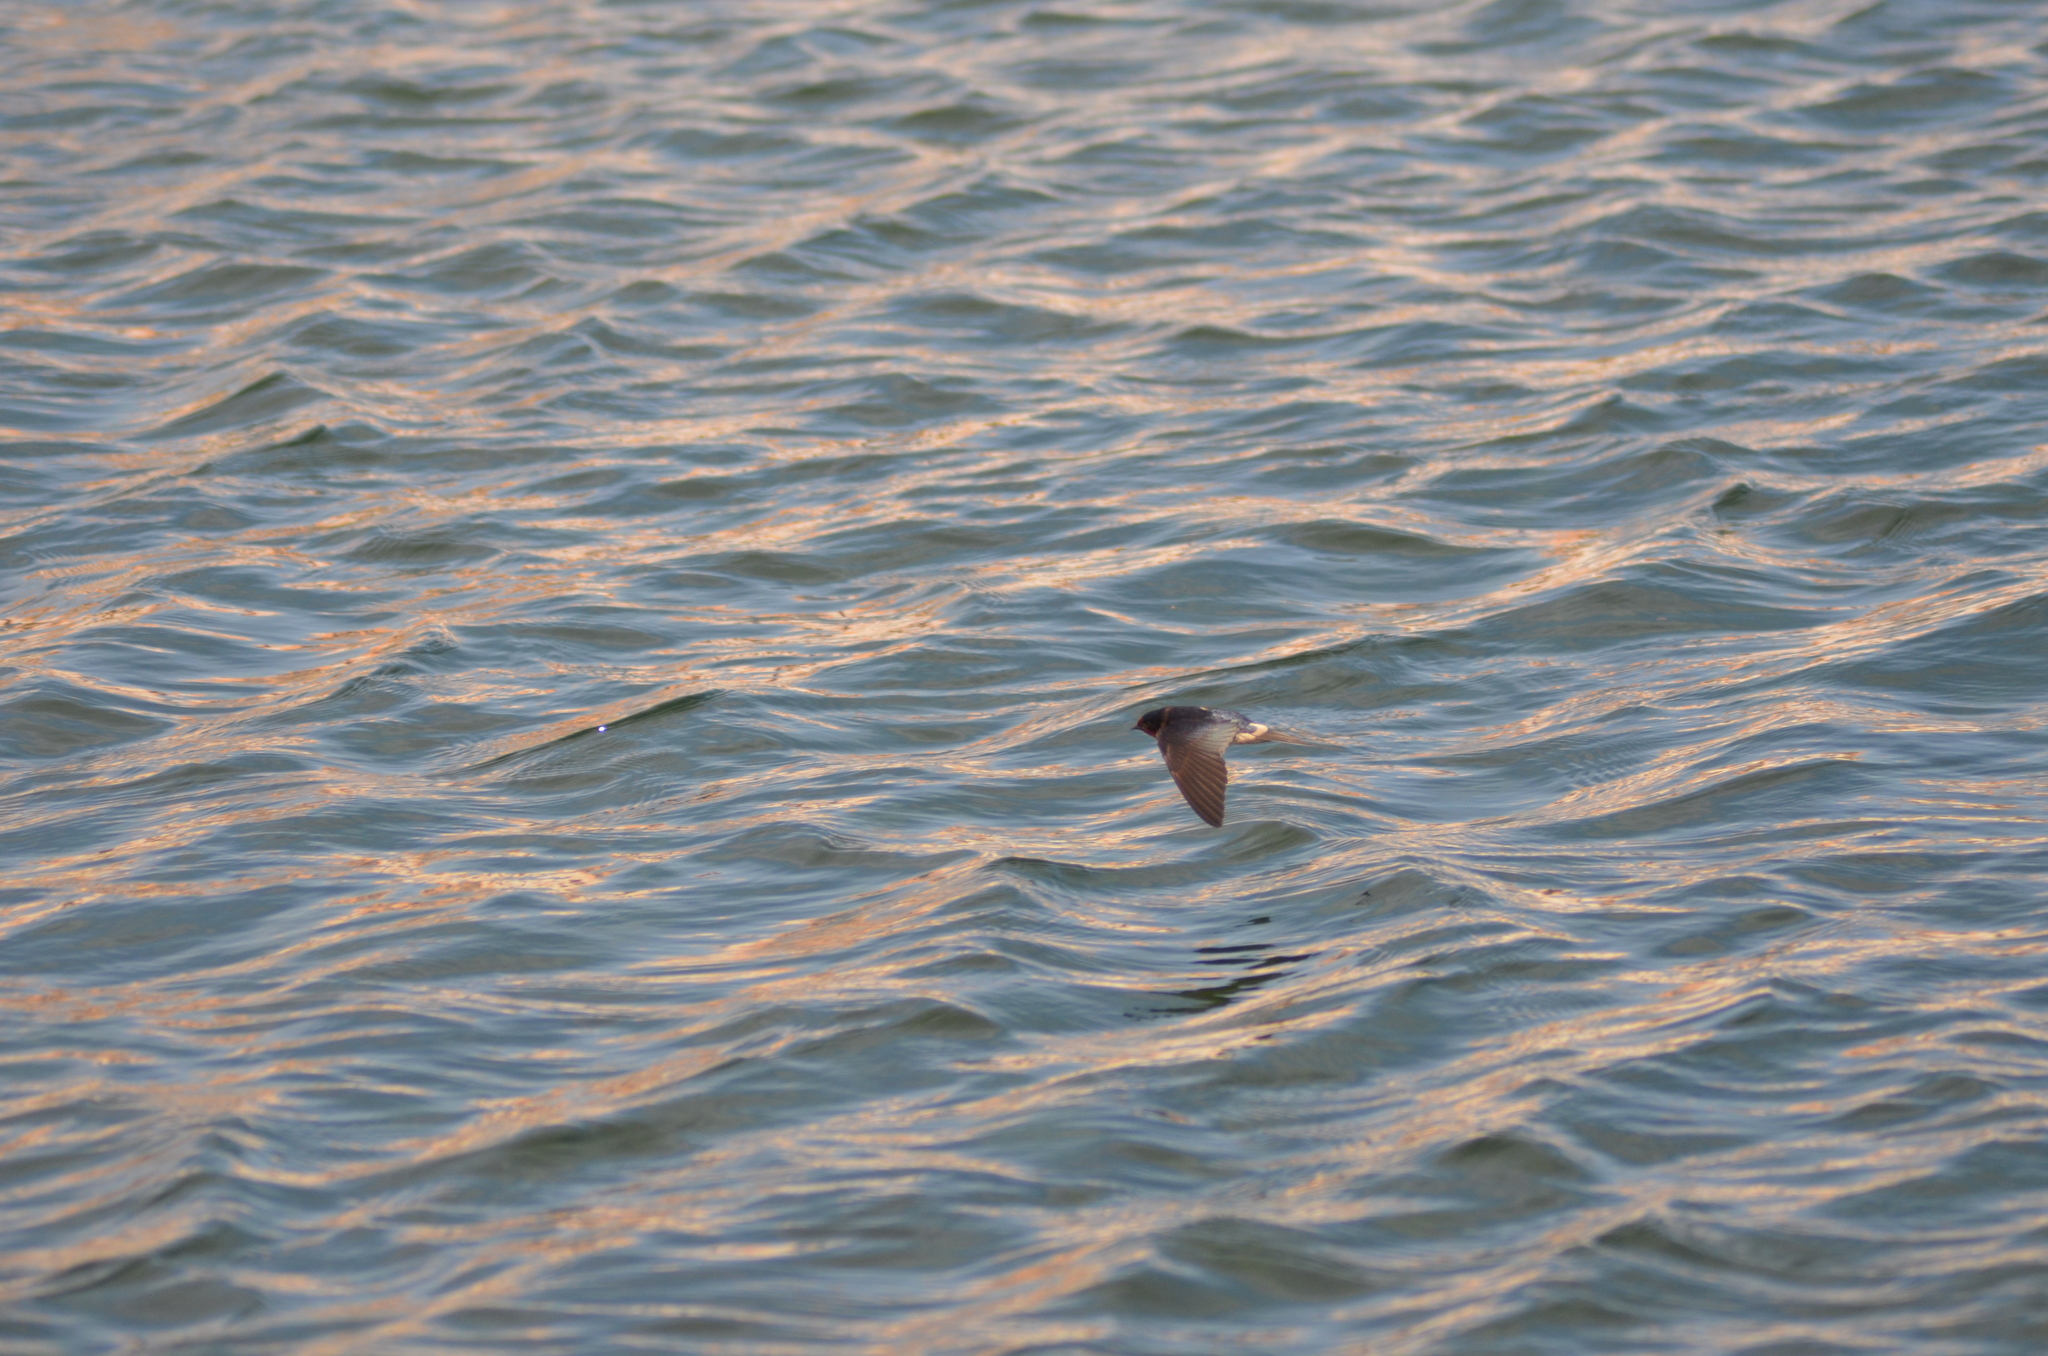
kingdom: Animalia
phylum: Chordata
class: Aves
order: Passeriformes
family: Hirundinidae
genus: Hirundo
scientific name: Hirundo rustica
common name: Barn swallow
